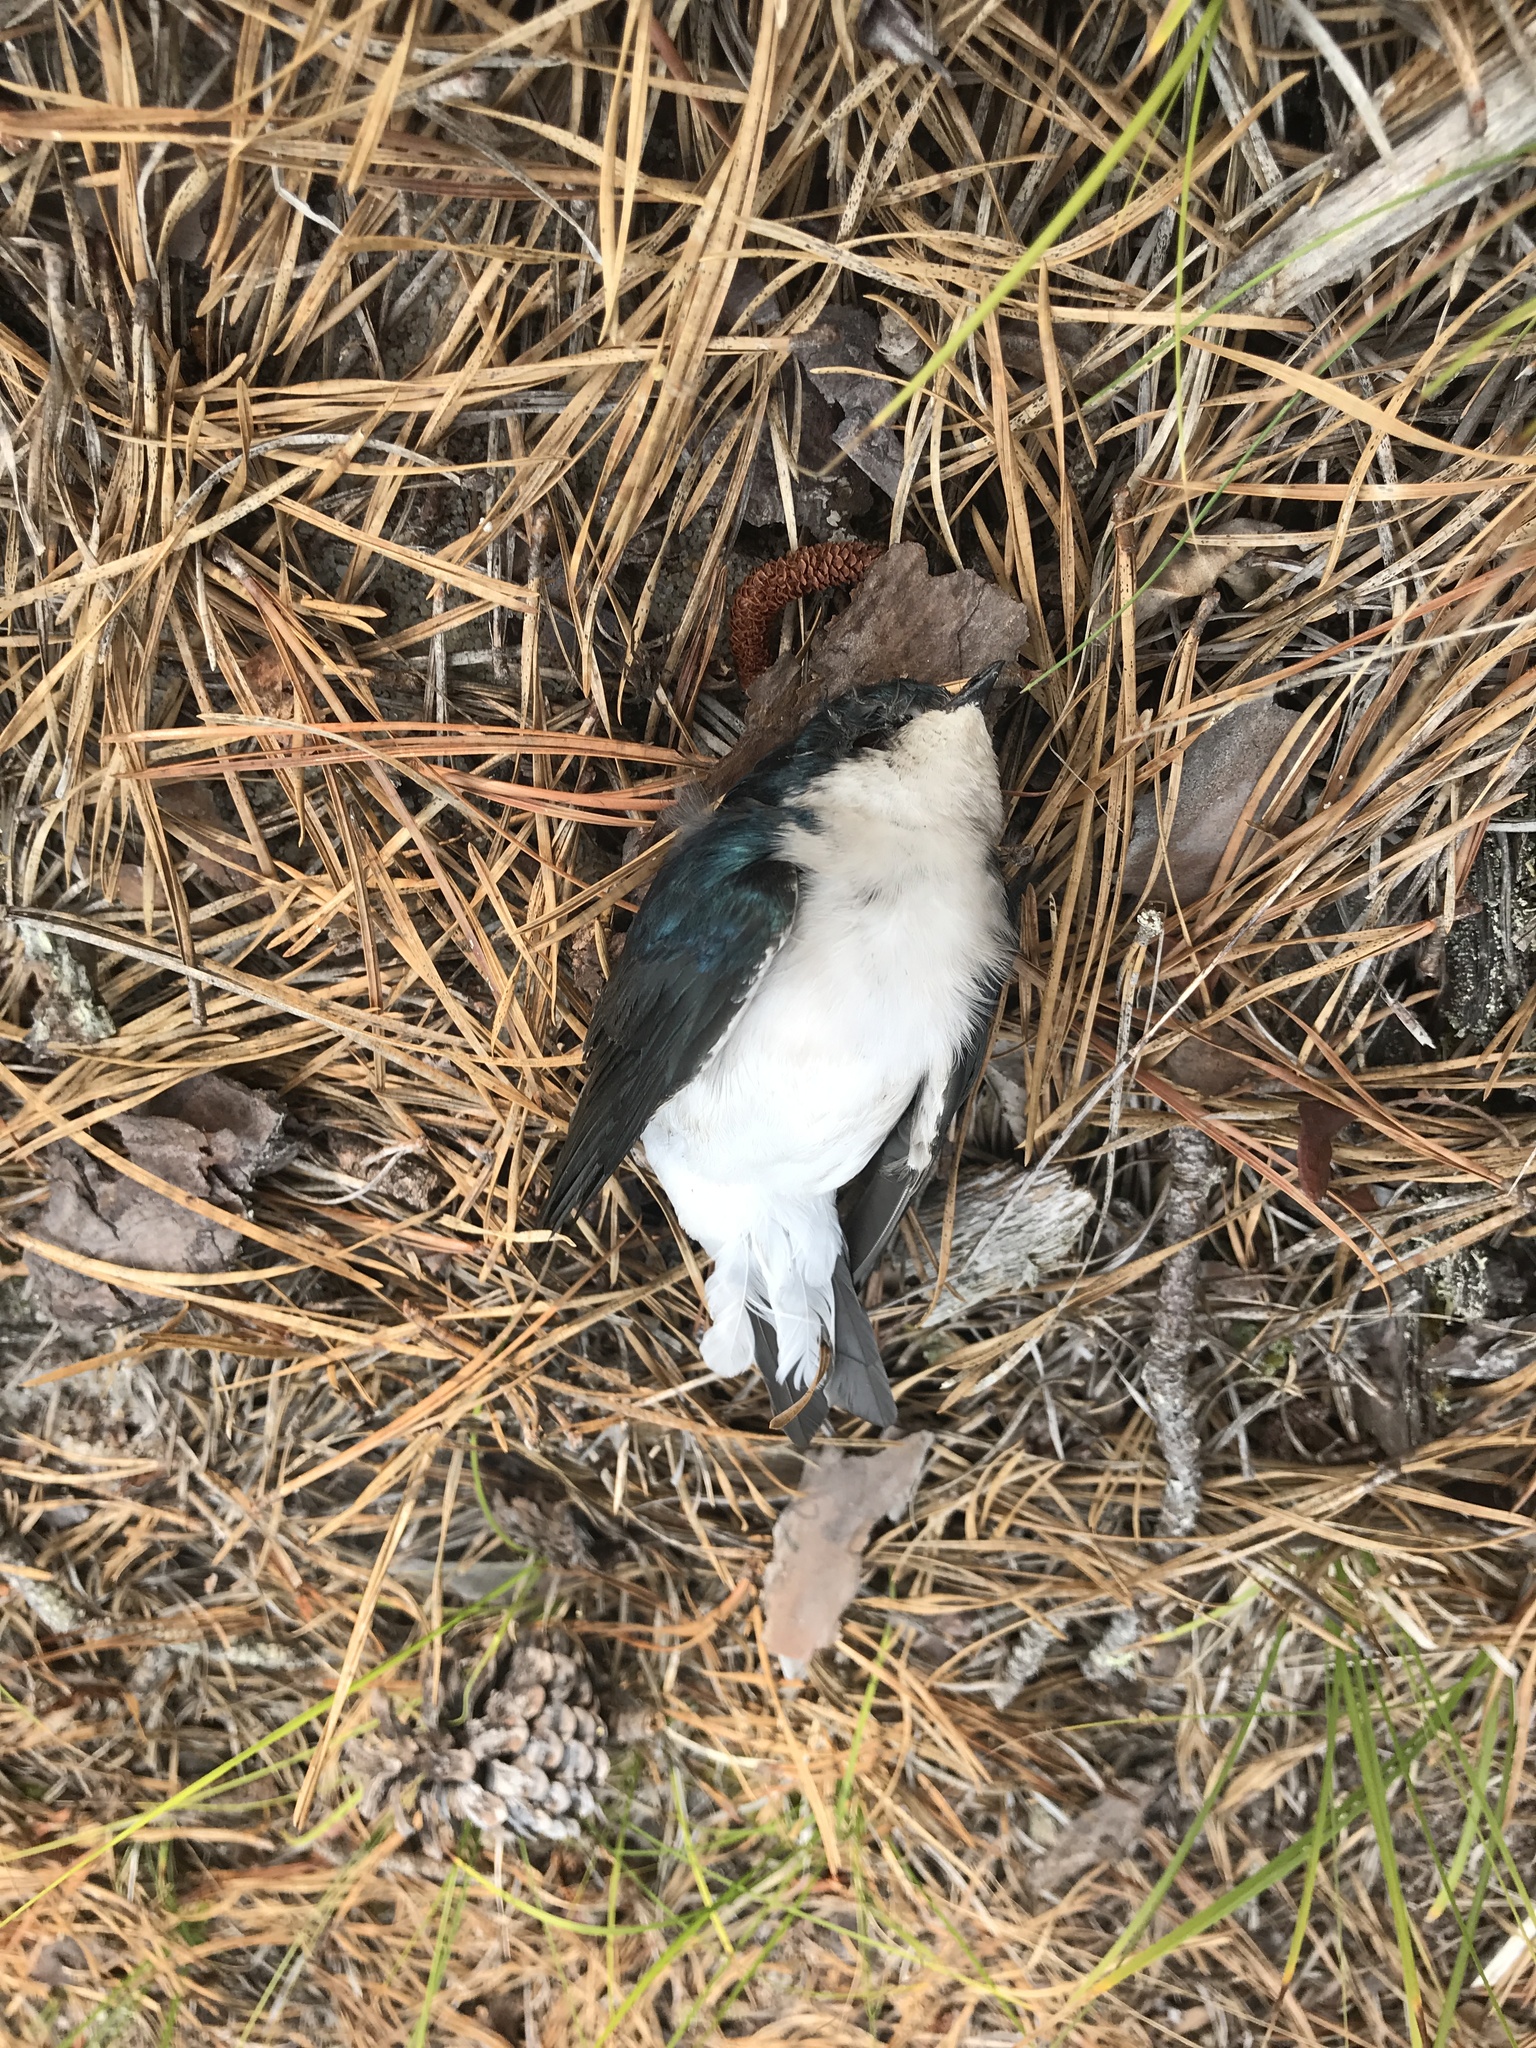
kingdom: Animalia
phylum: Chordata
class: Aves
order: Passeriformes
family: Hirundinidae
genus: Tachycineta
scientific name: Tachycineta bicolor
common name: Tree swallow
